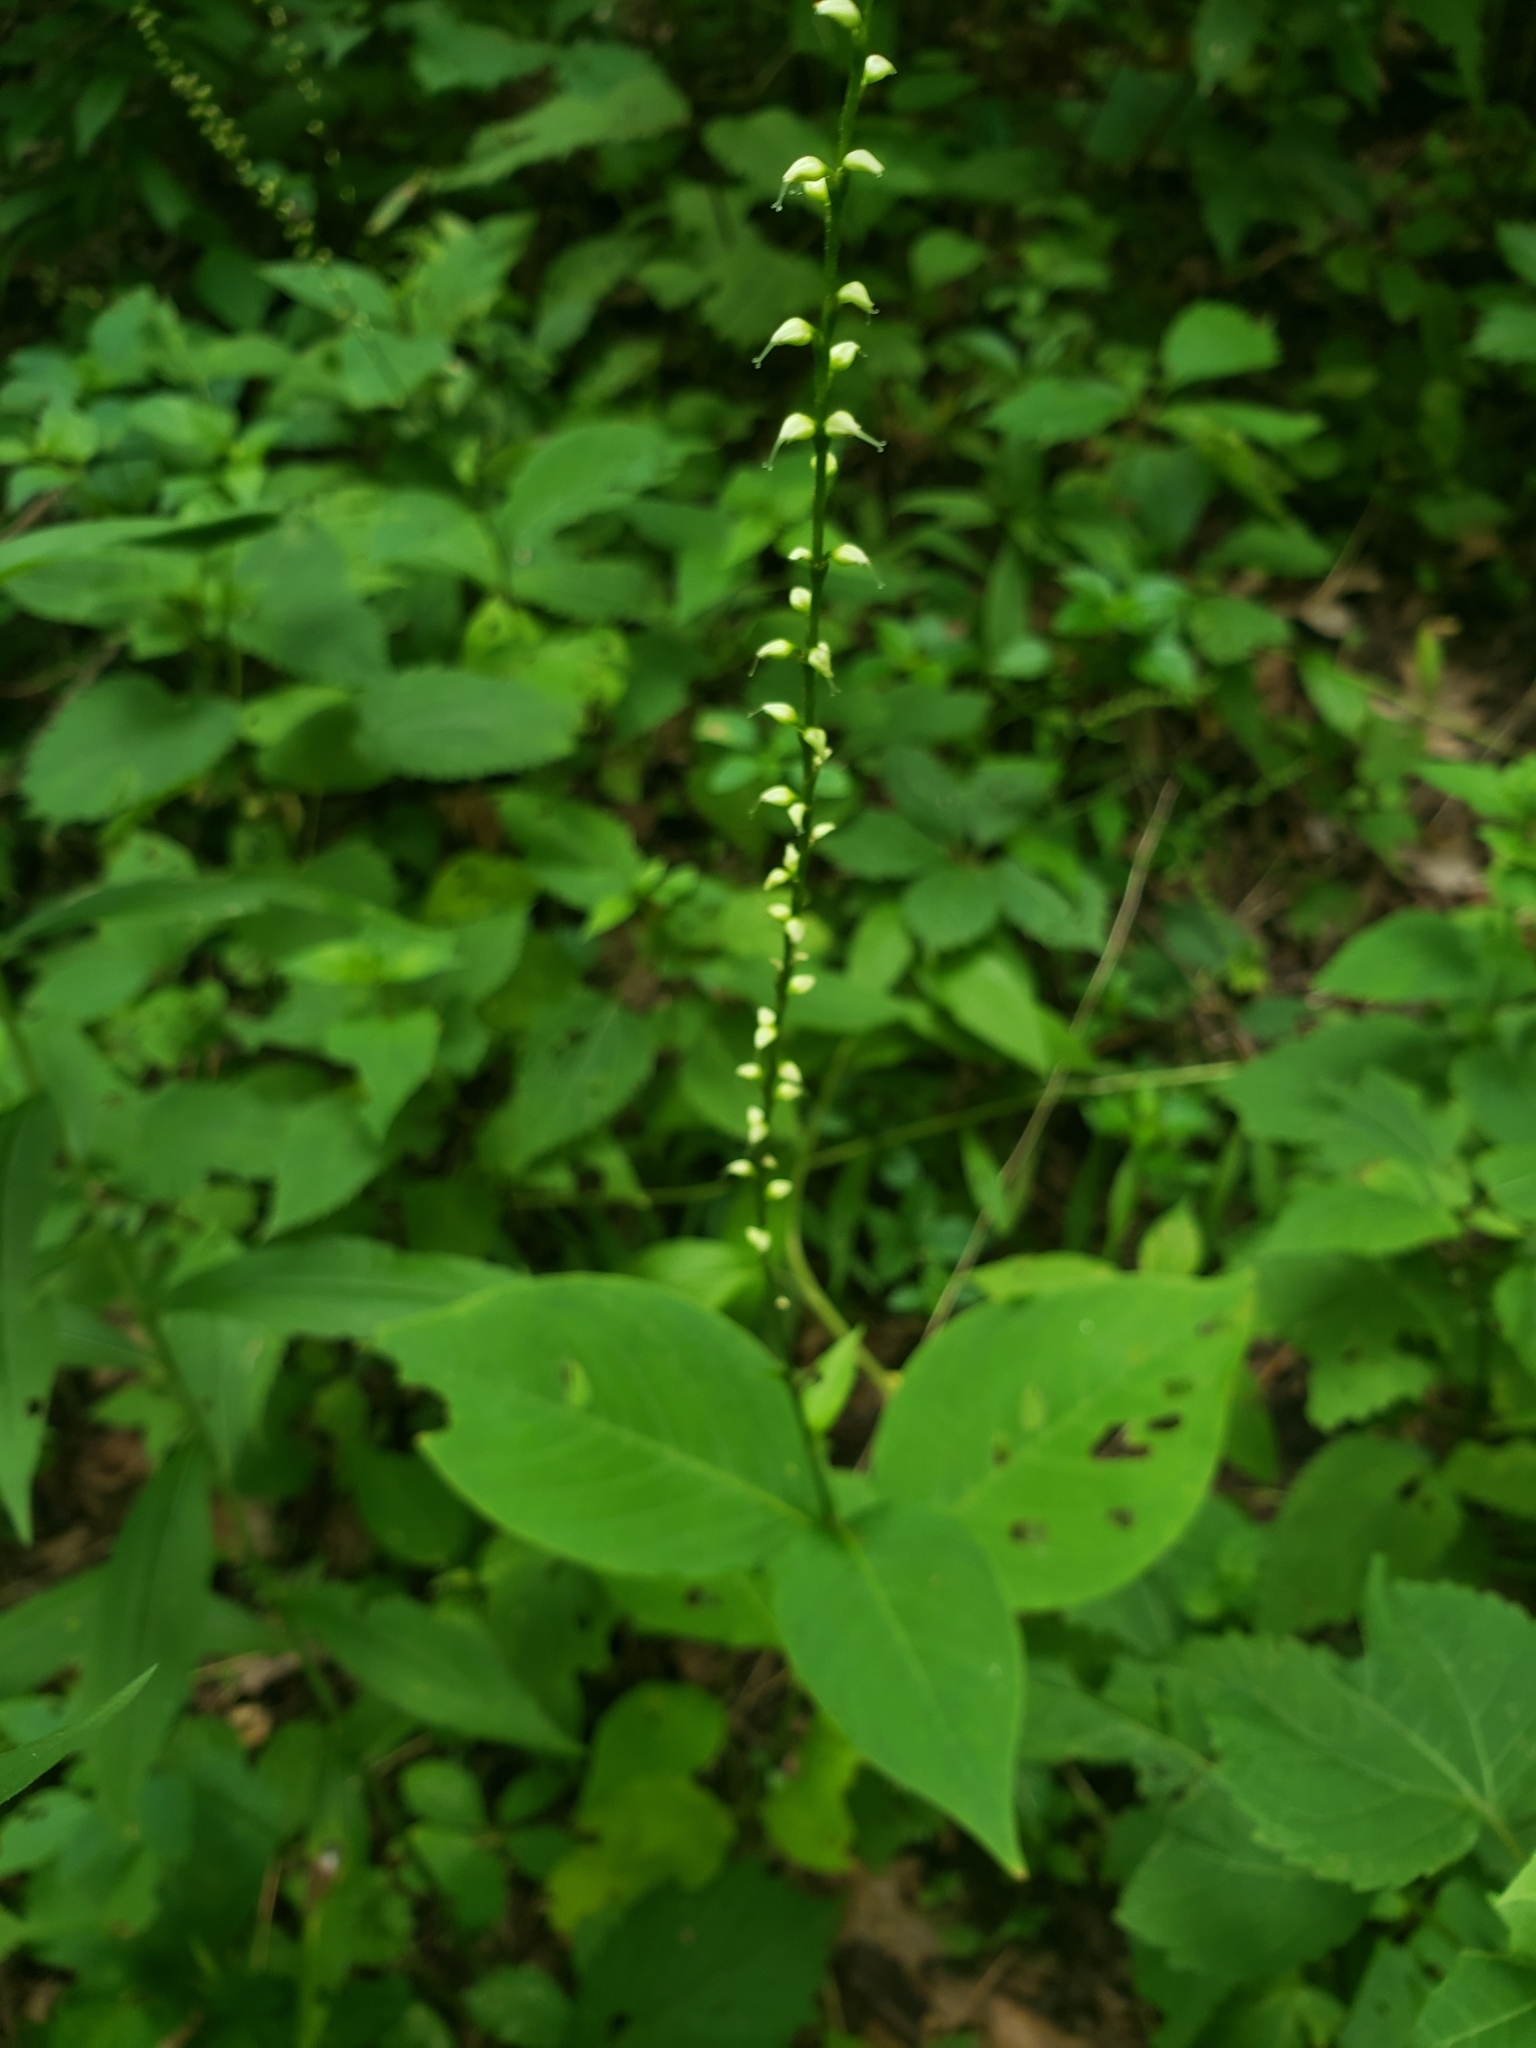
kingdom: Plantae
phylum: Tracheophyta
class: Magnoliopsida
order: Caryophyllales
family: Polygonaceae
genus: Persicaria
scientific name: Persicaria virginiana
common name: Jumpseed
